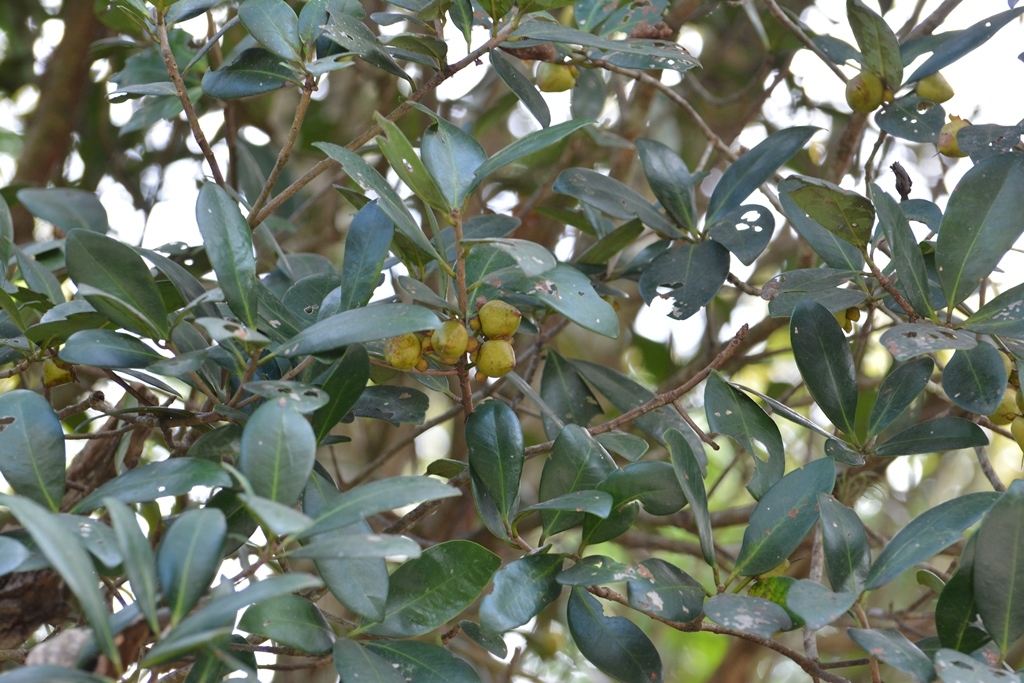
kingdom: Plantae
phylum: Tracheophyta
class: Magnoliopsida
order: Ericales
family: Pentaphylacaceae
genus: Ternstroemia
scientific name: Ternstroemia tepezapote
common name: Copey vera
